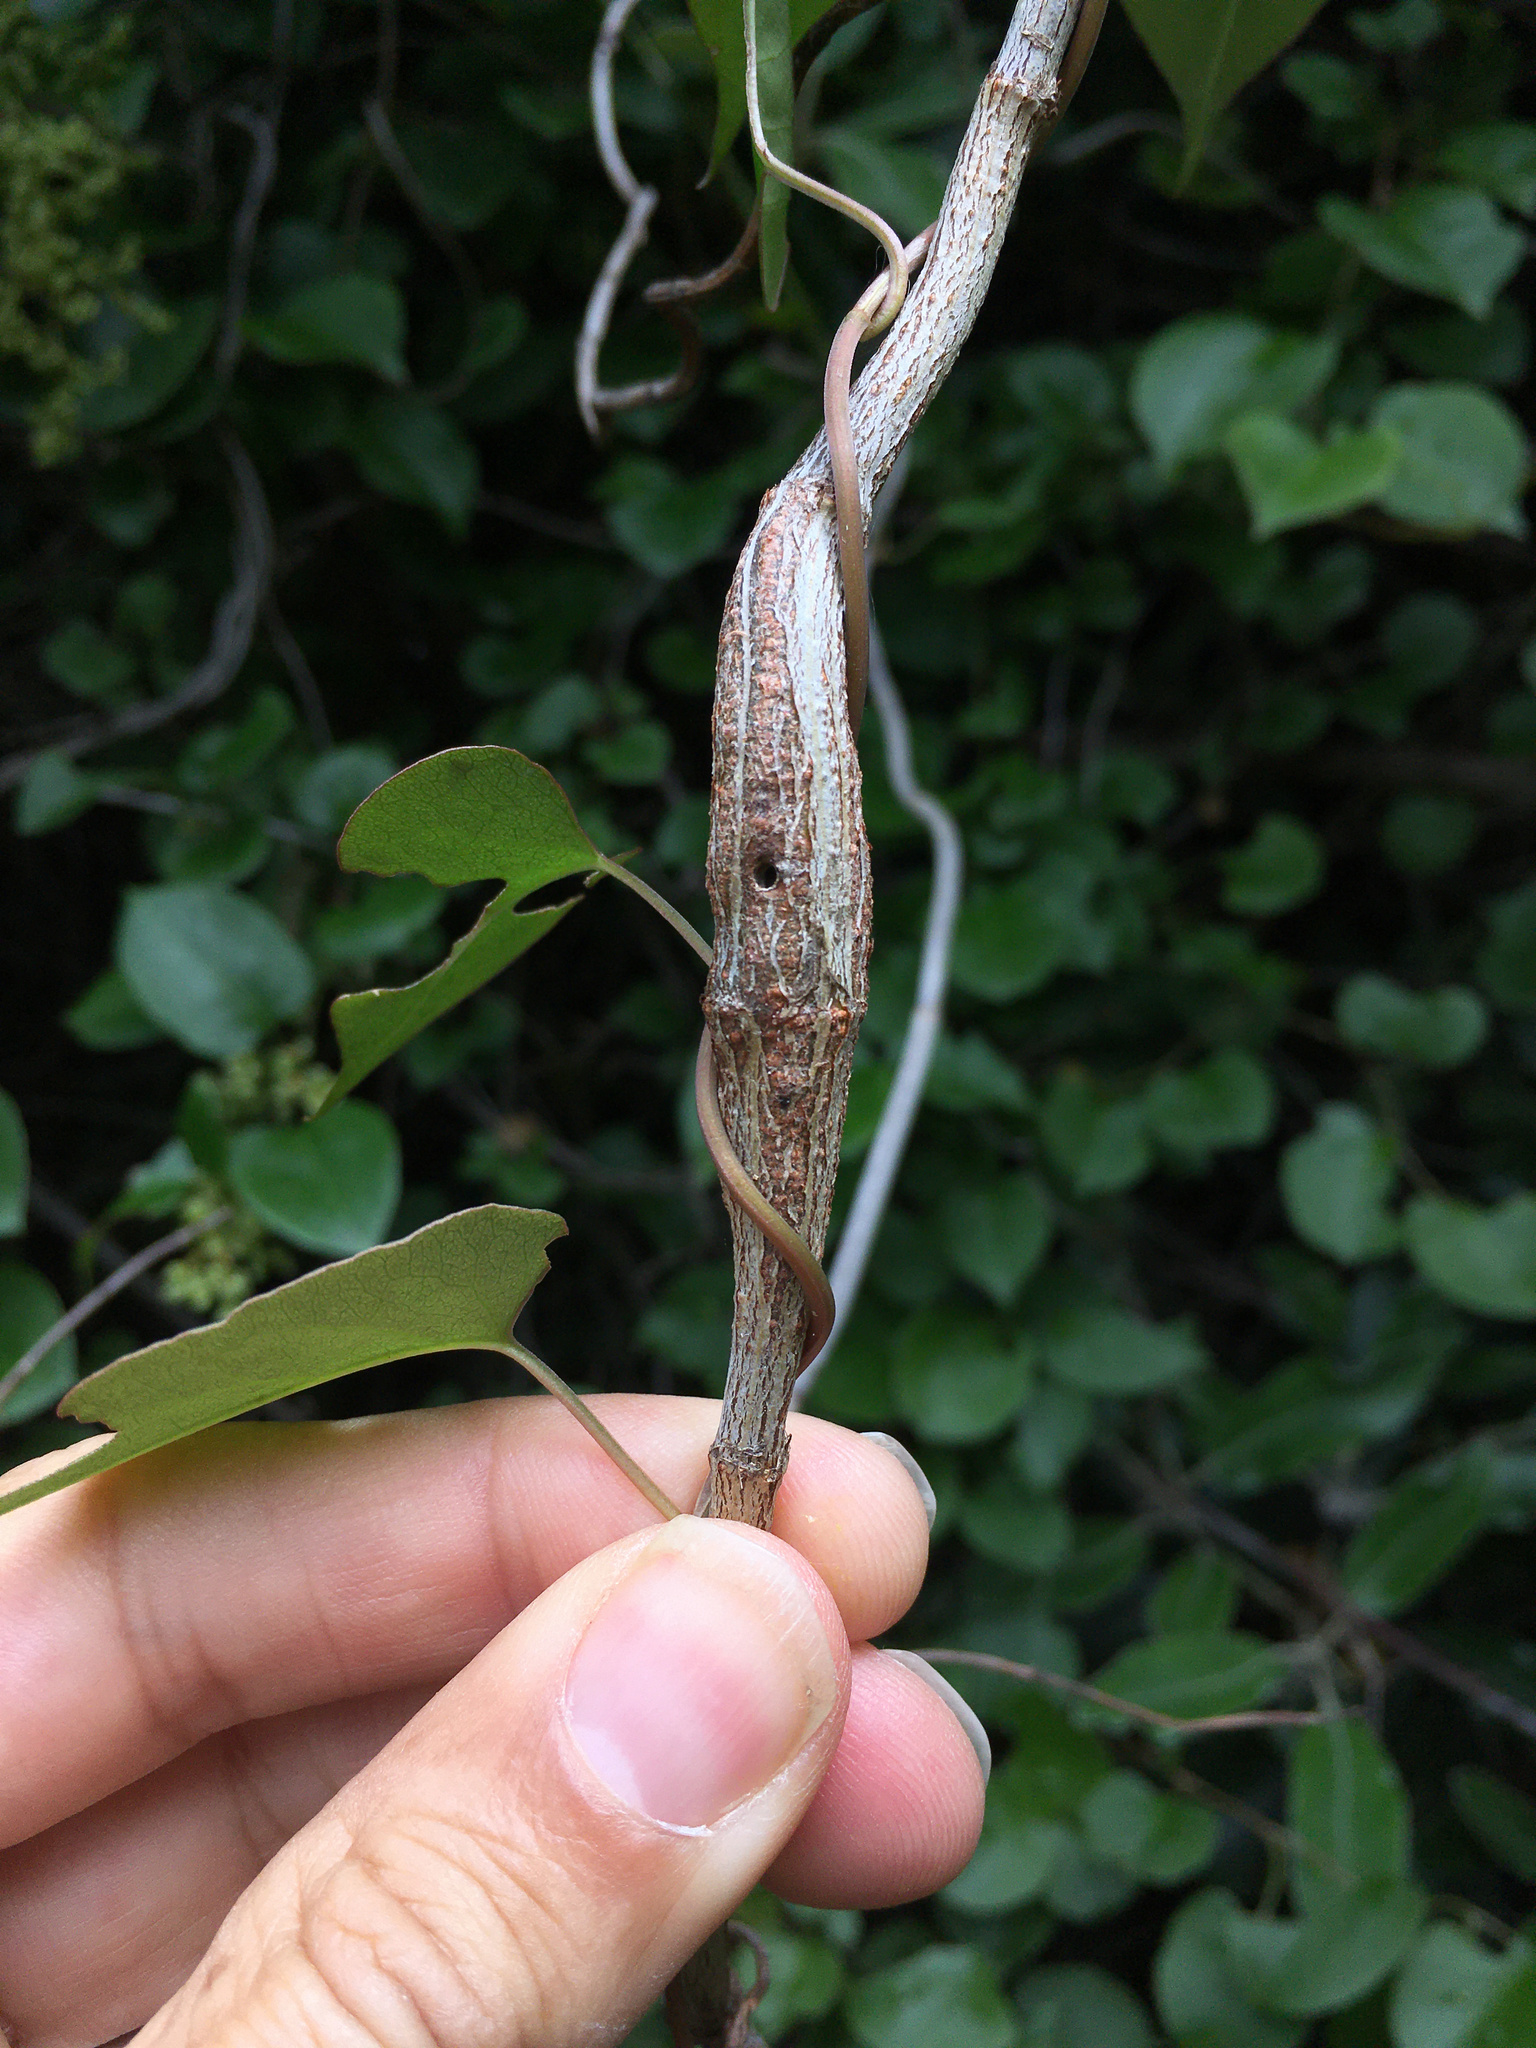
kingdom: Animalia
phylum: Arthropoda
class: Insecta
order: Lepidoptera
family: Thyrididae
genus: Morova
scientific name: Morova subfasciata
